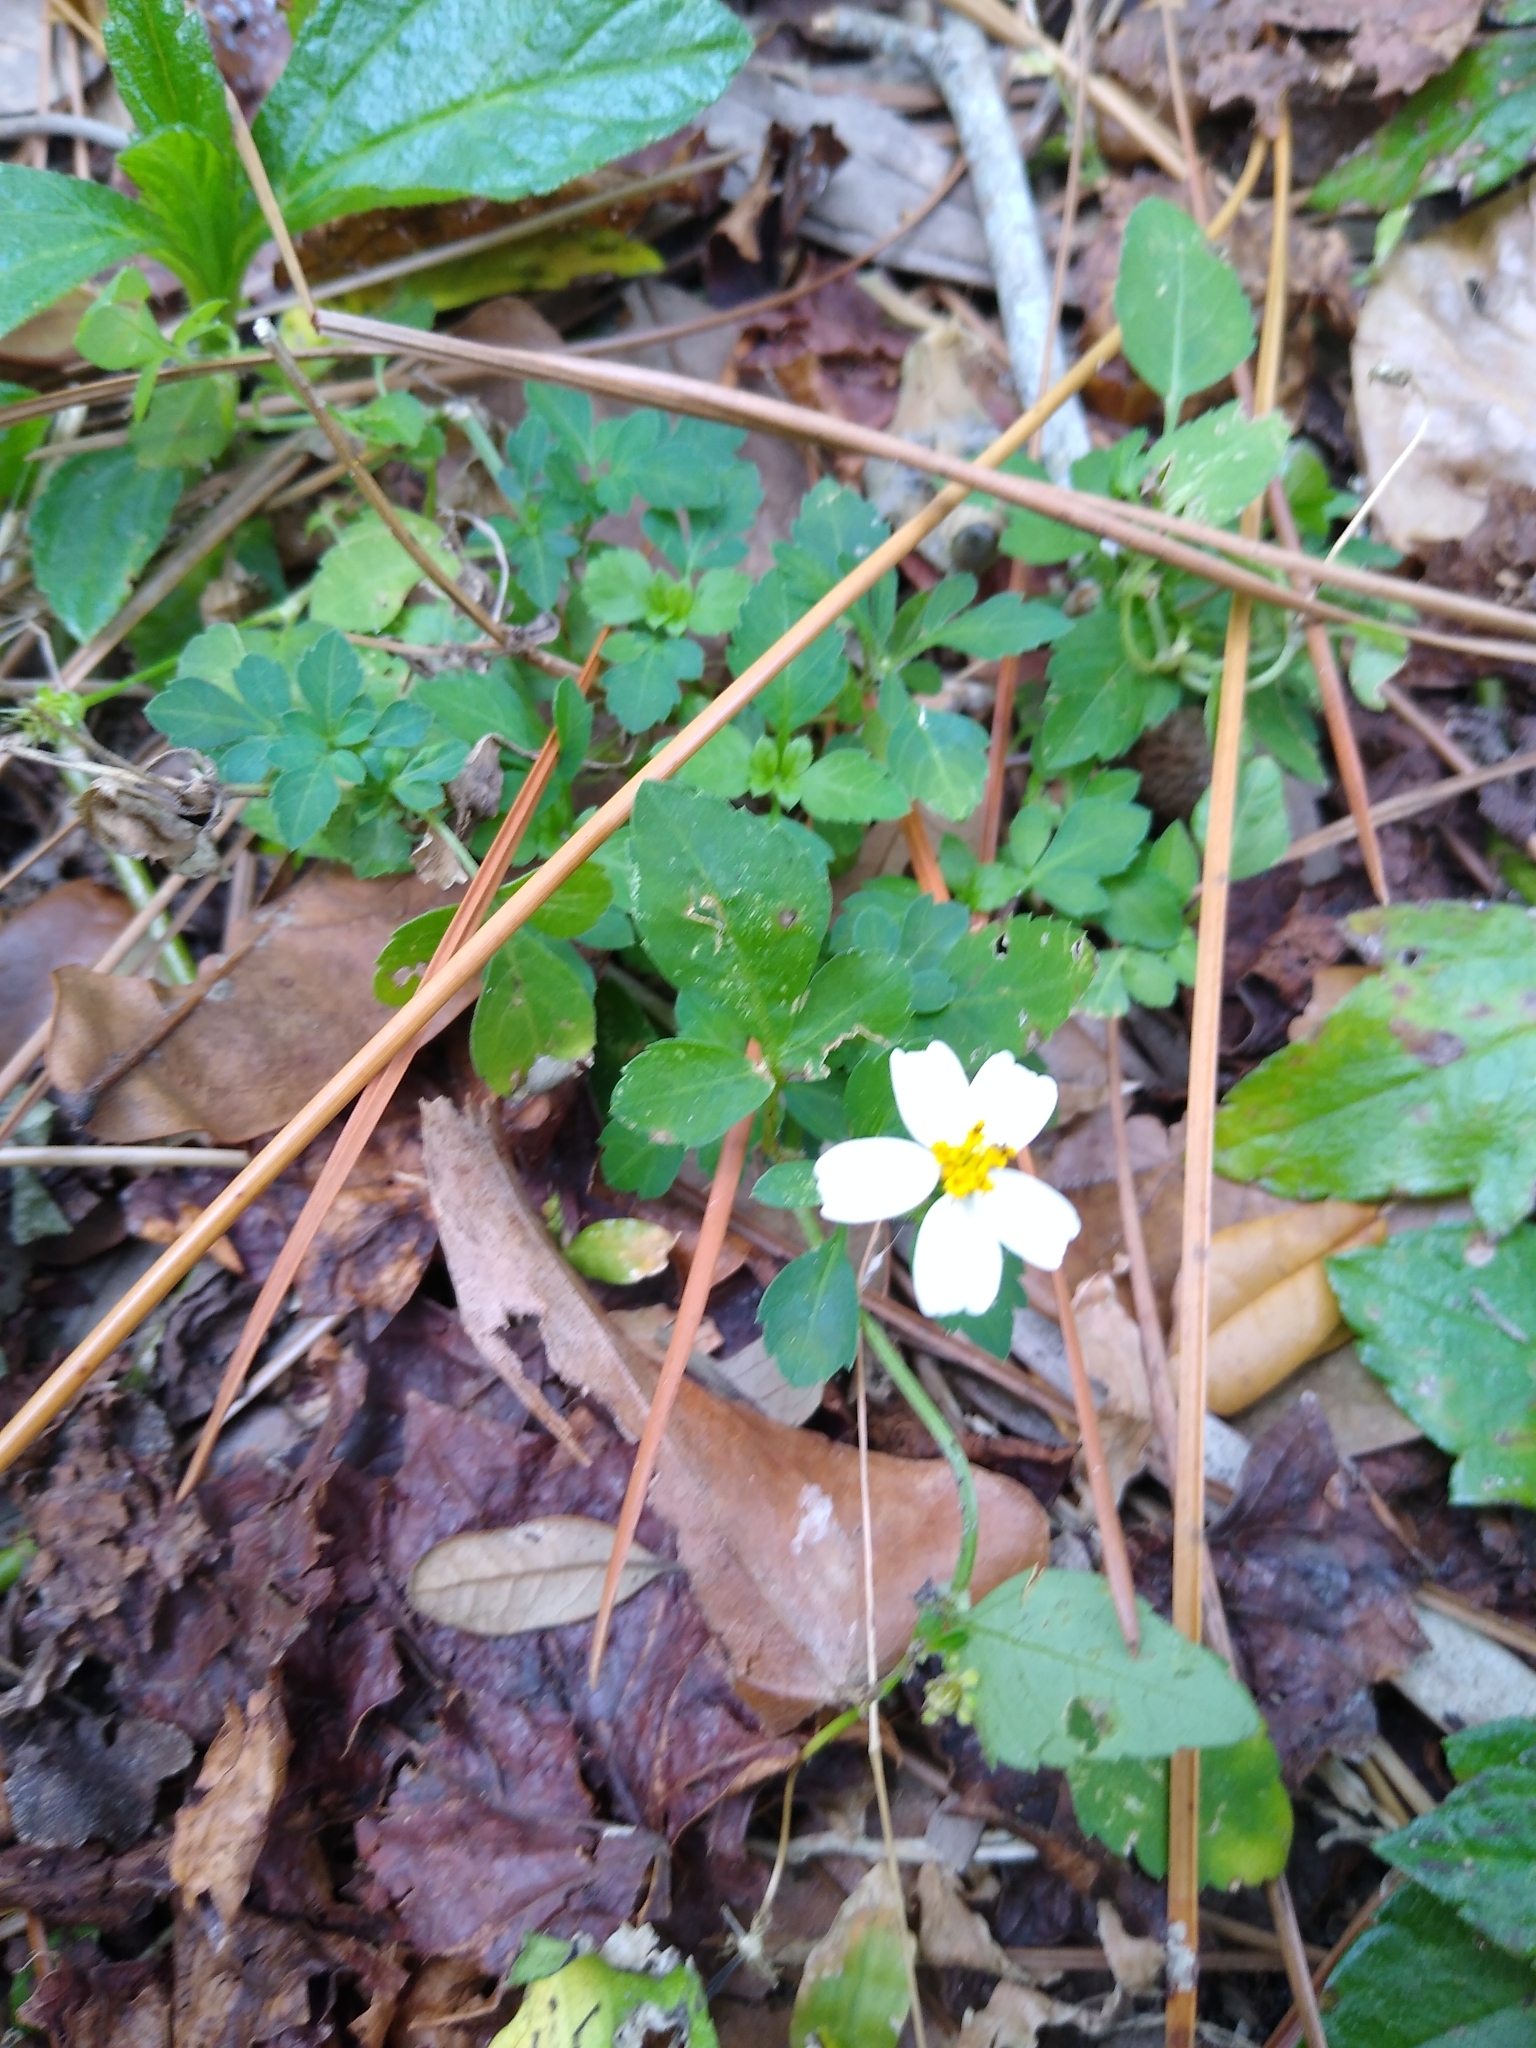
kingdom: Plantae
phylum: Tracheophyta
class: Magnoliopsida
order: Asterales
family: Asteraceae
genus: Bidens
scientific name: Bidens alba
